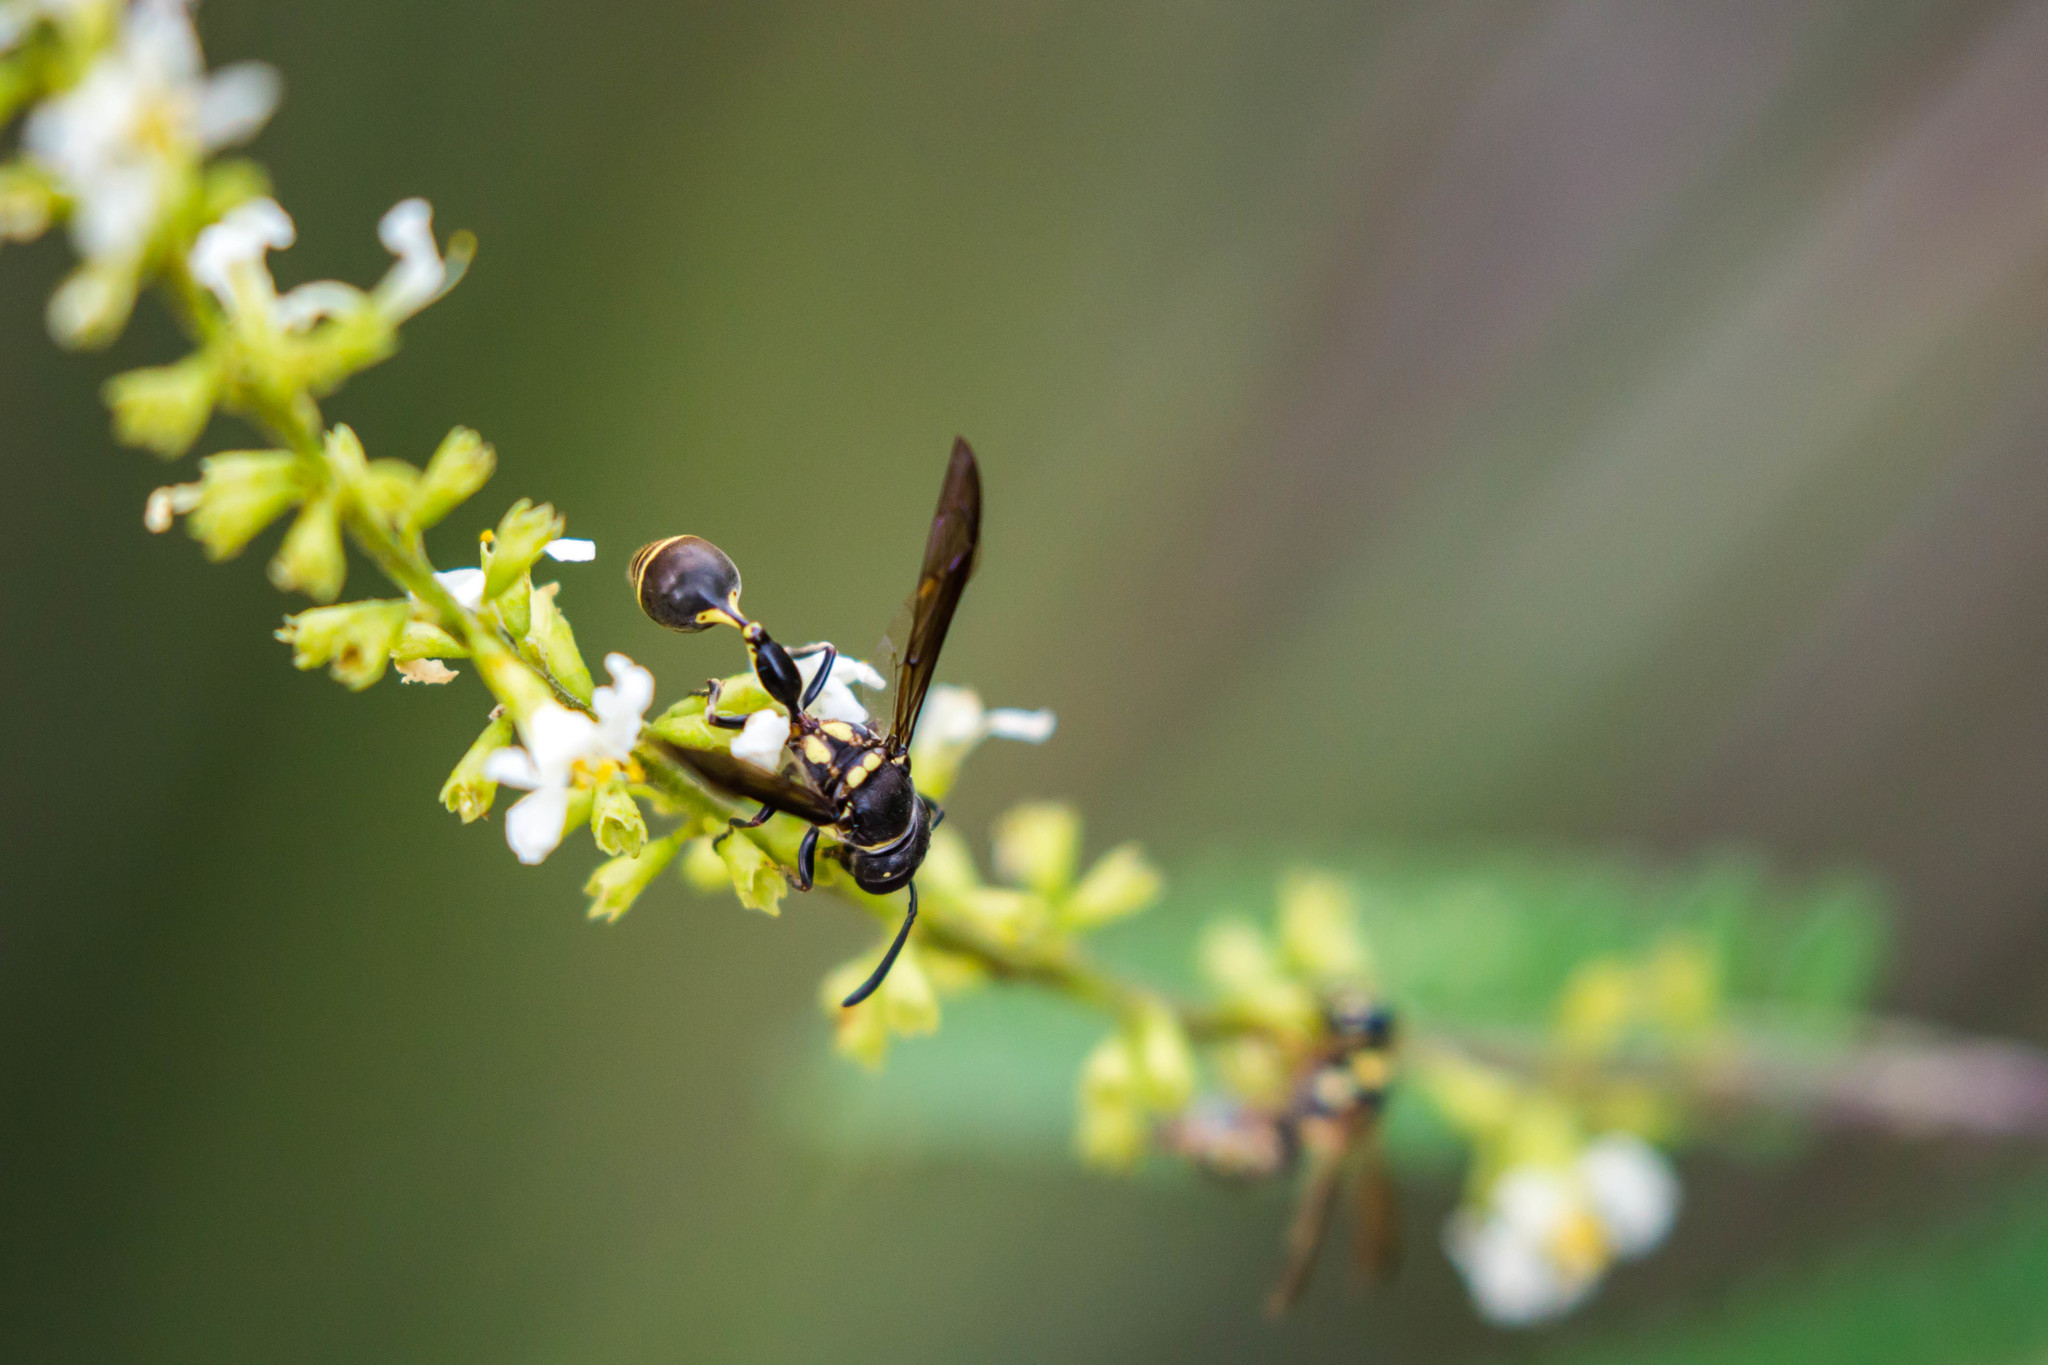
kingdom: Animalia
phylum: Arthropoda
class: Insecta
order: Hymenoptera
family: Eumenidae
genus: Zethus
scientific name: Zethus miscogaster
